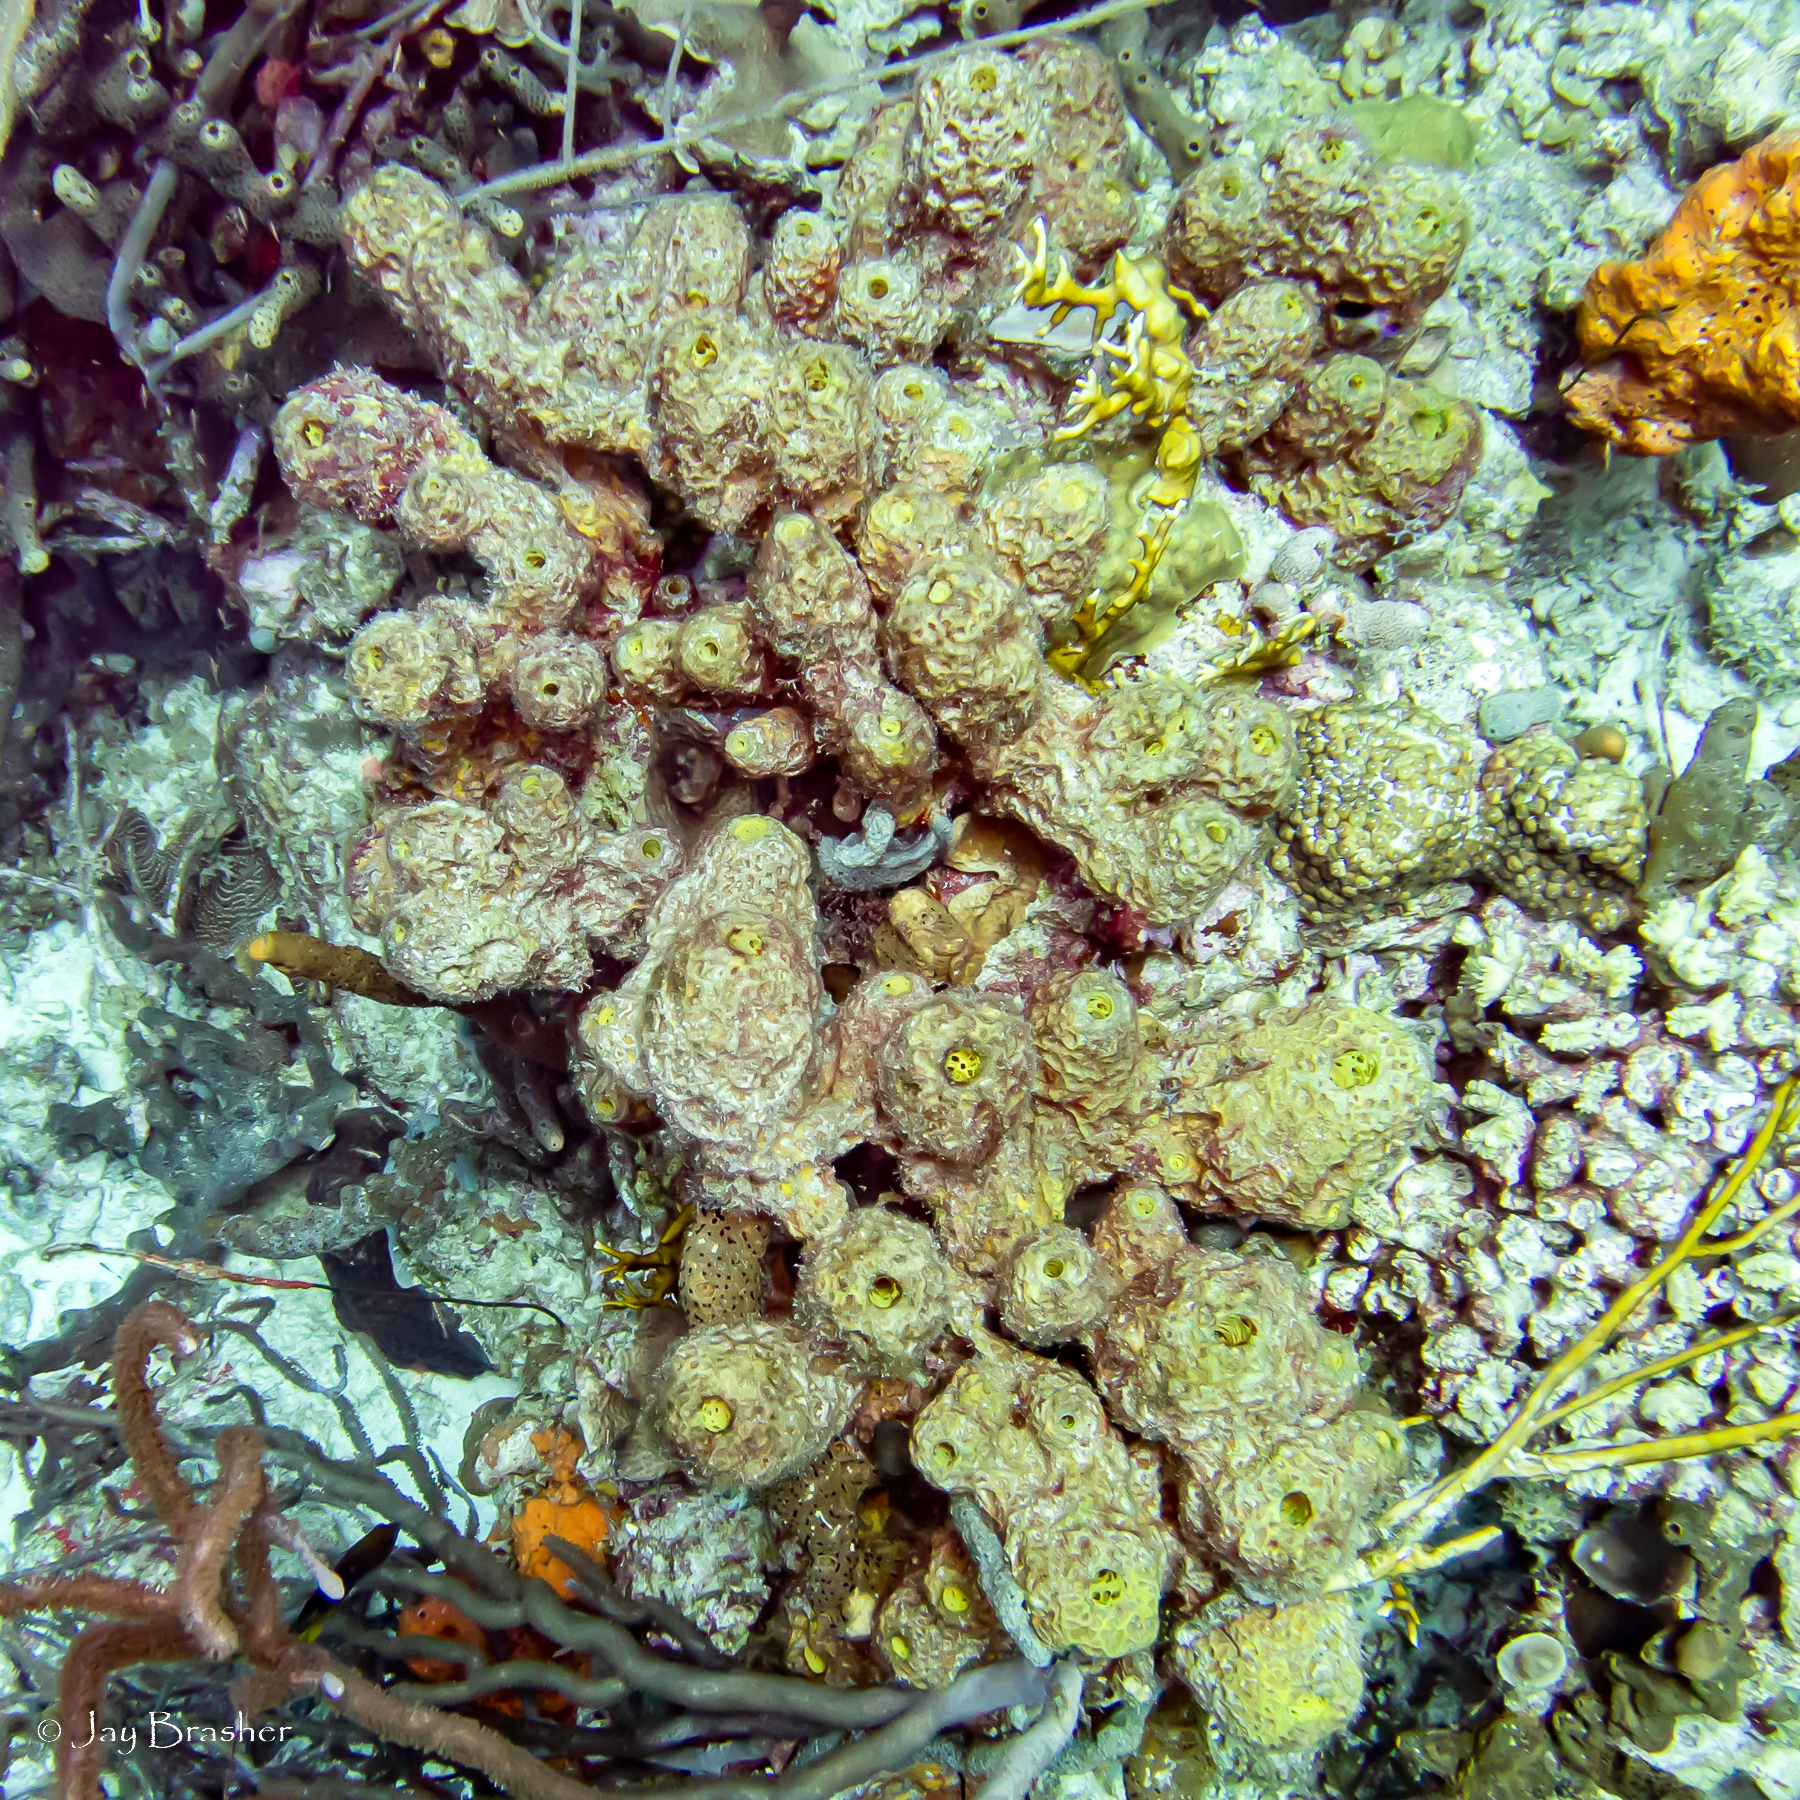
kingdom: Animalia
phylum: Porifera
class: Demospongiae
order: Verongiida
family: Aplysinidae
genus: Verongula
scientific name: Verongula rigida
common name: Pitted sponge
